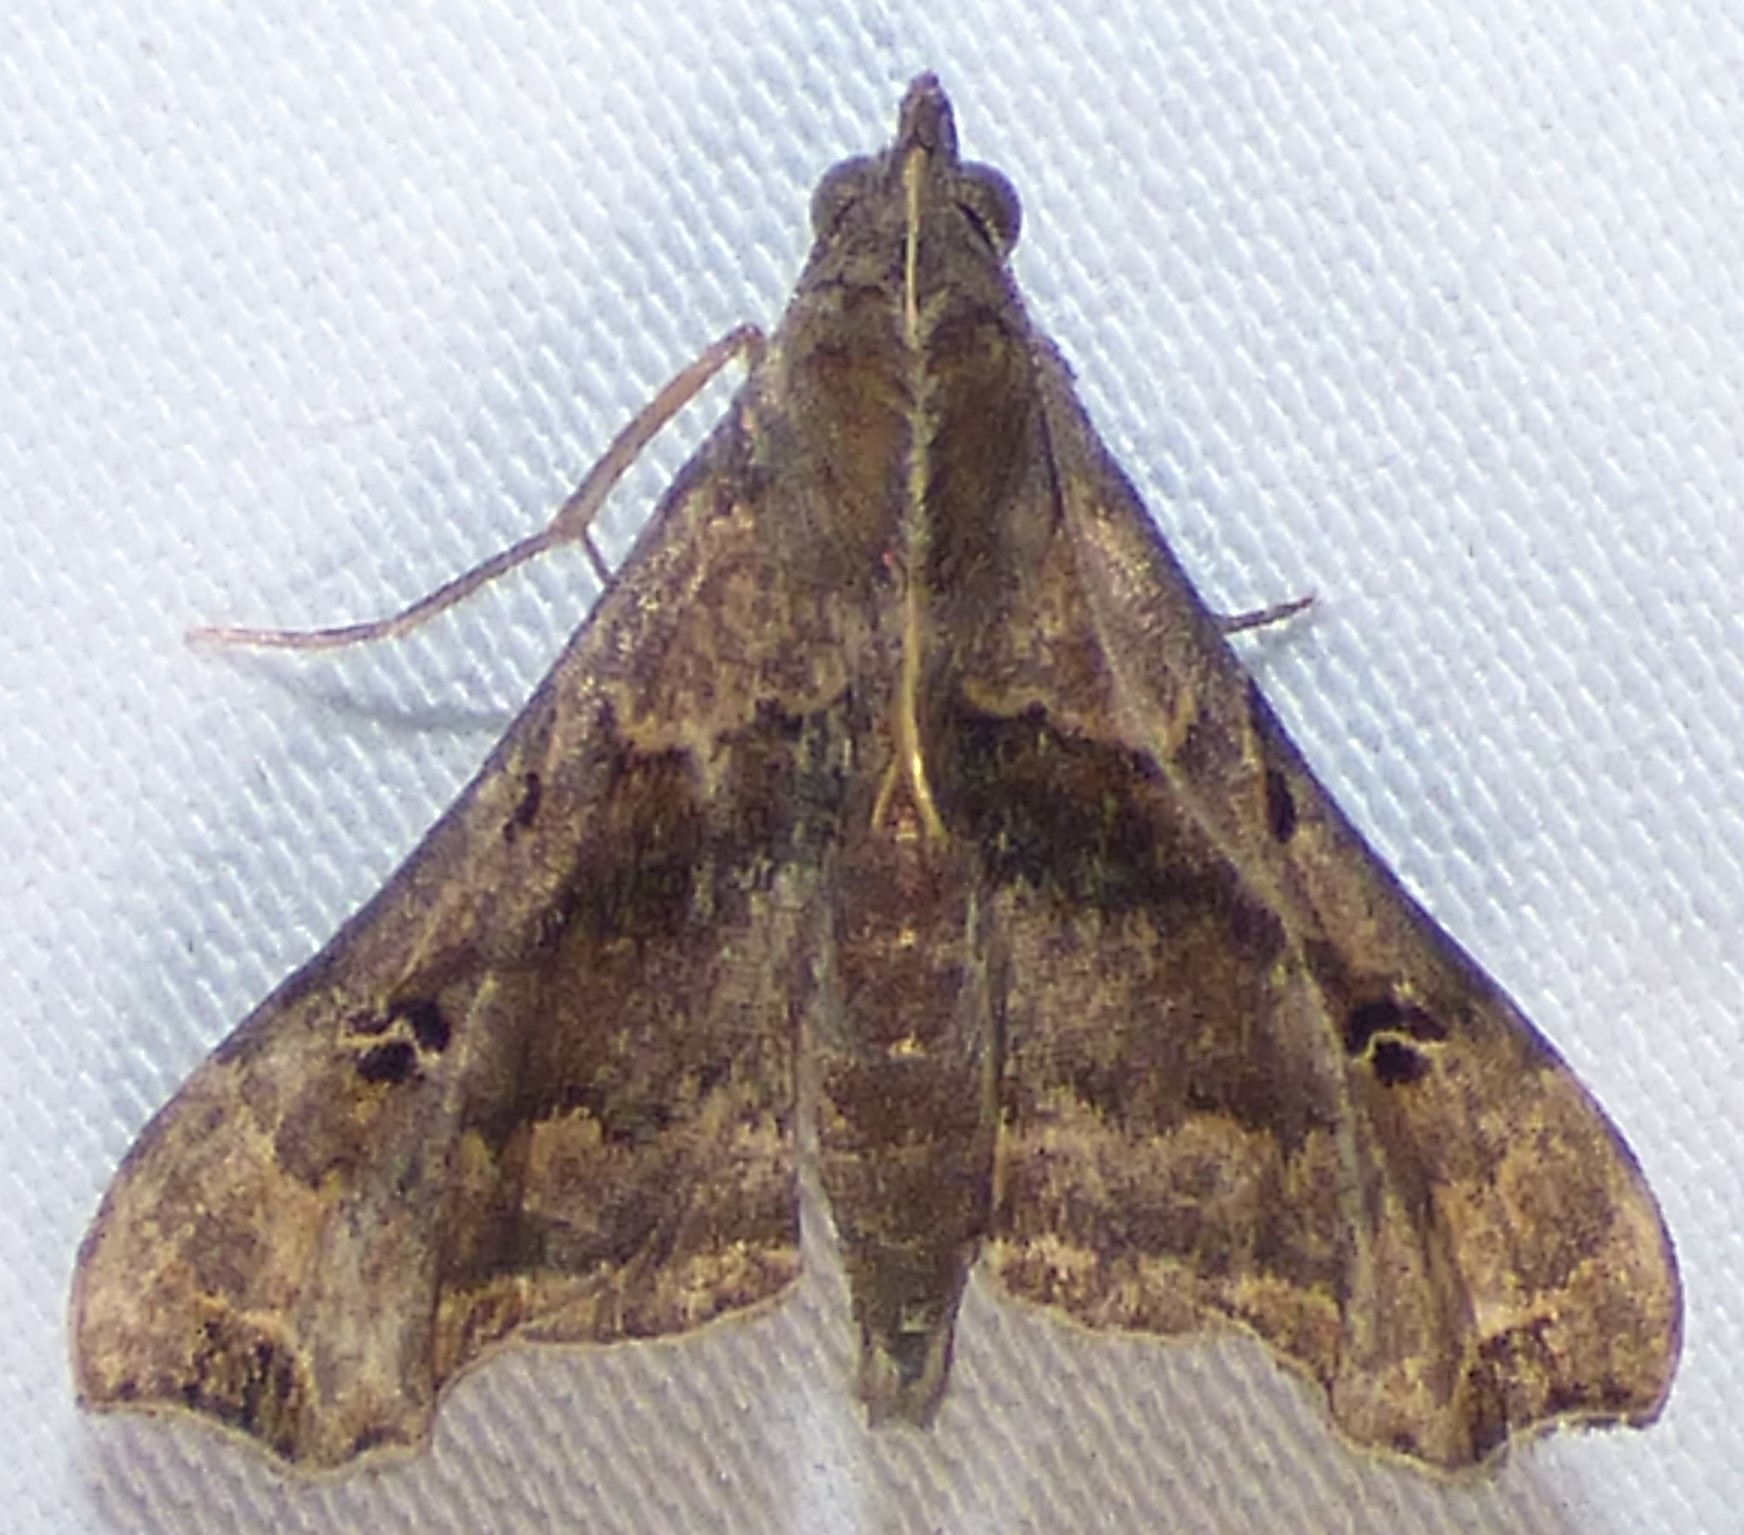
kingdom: Animalia
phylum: Arthropoda
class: Insecta
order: Lepidoptera
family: Erebidae
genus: Palthis
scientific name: Palthis asopialis
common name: Faint-spotted palthis moth
